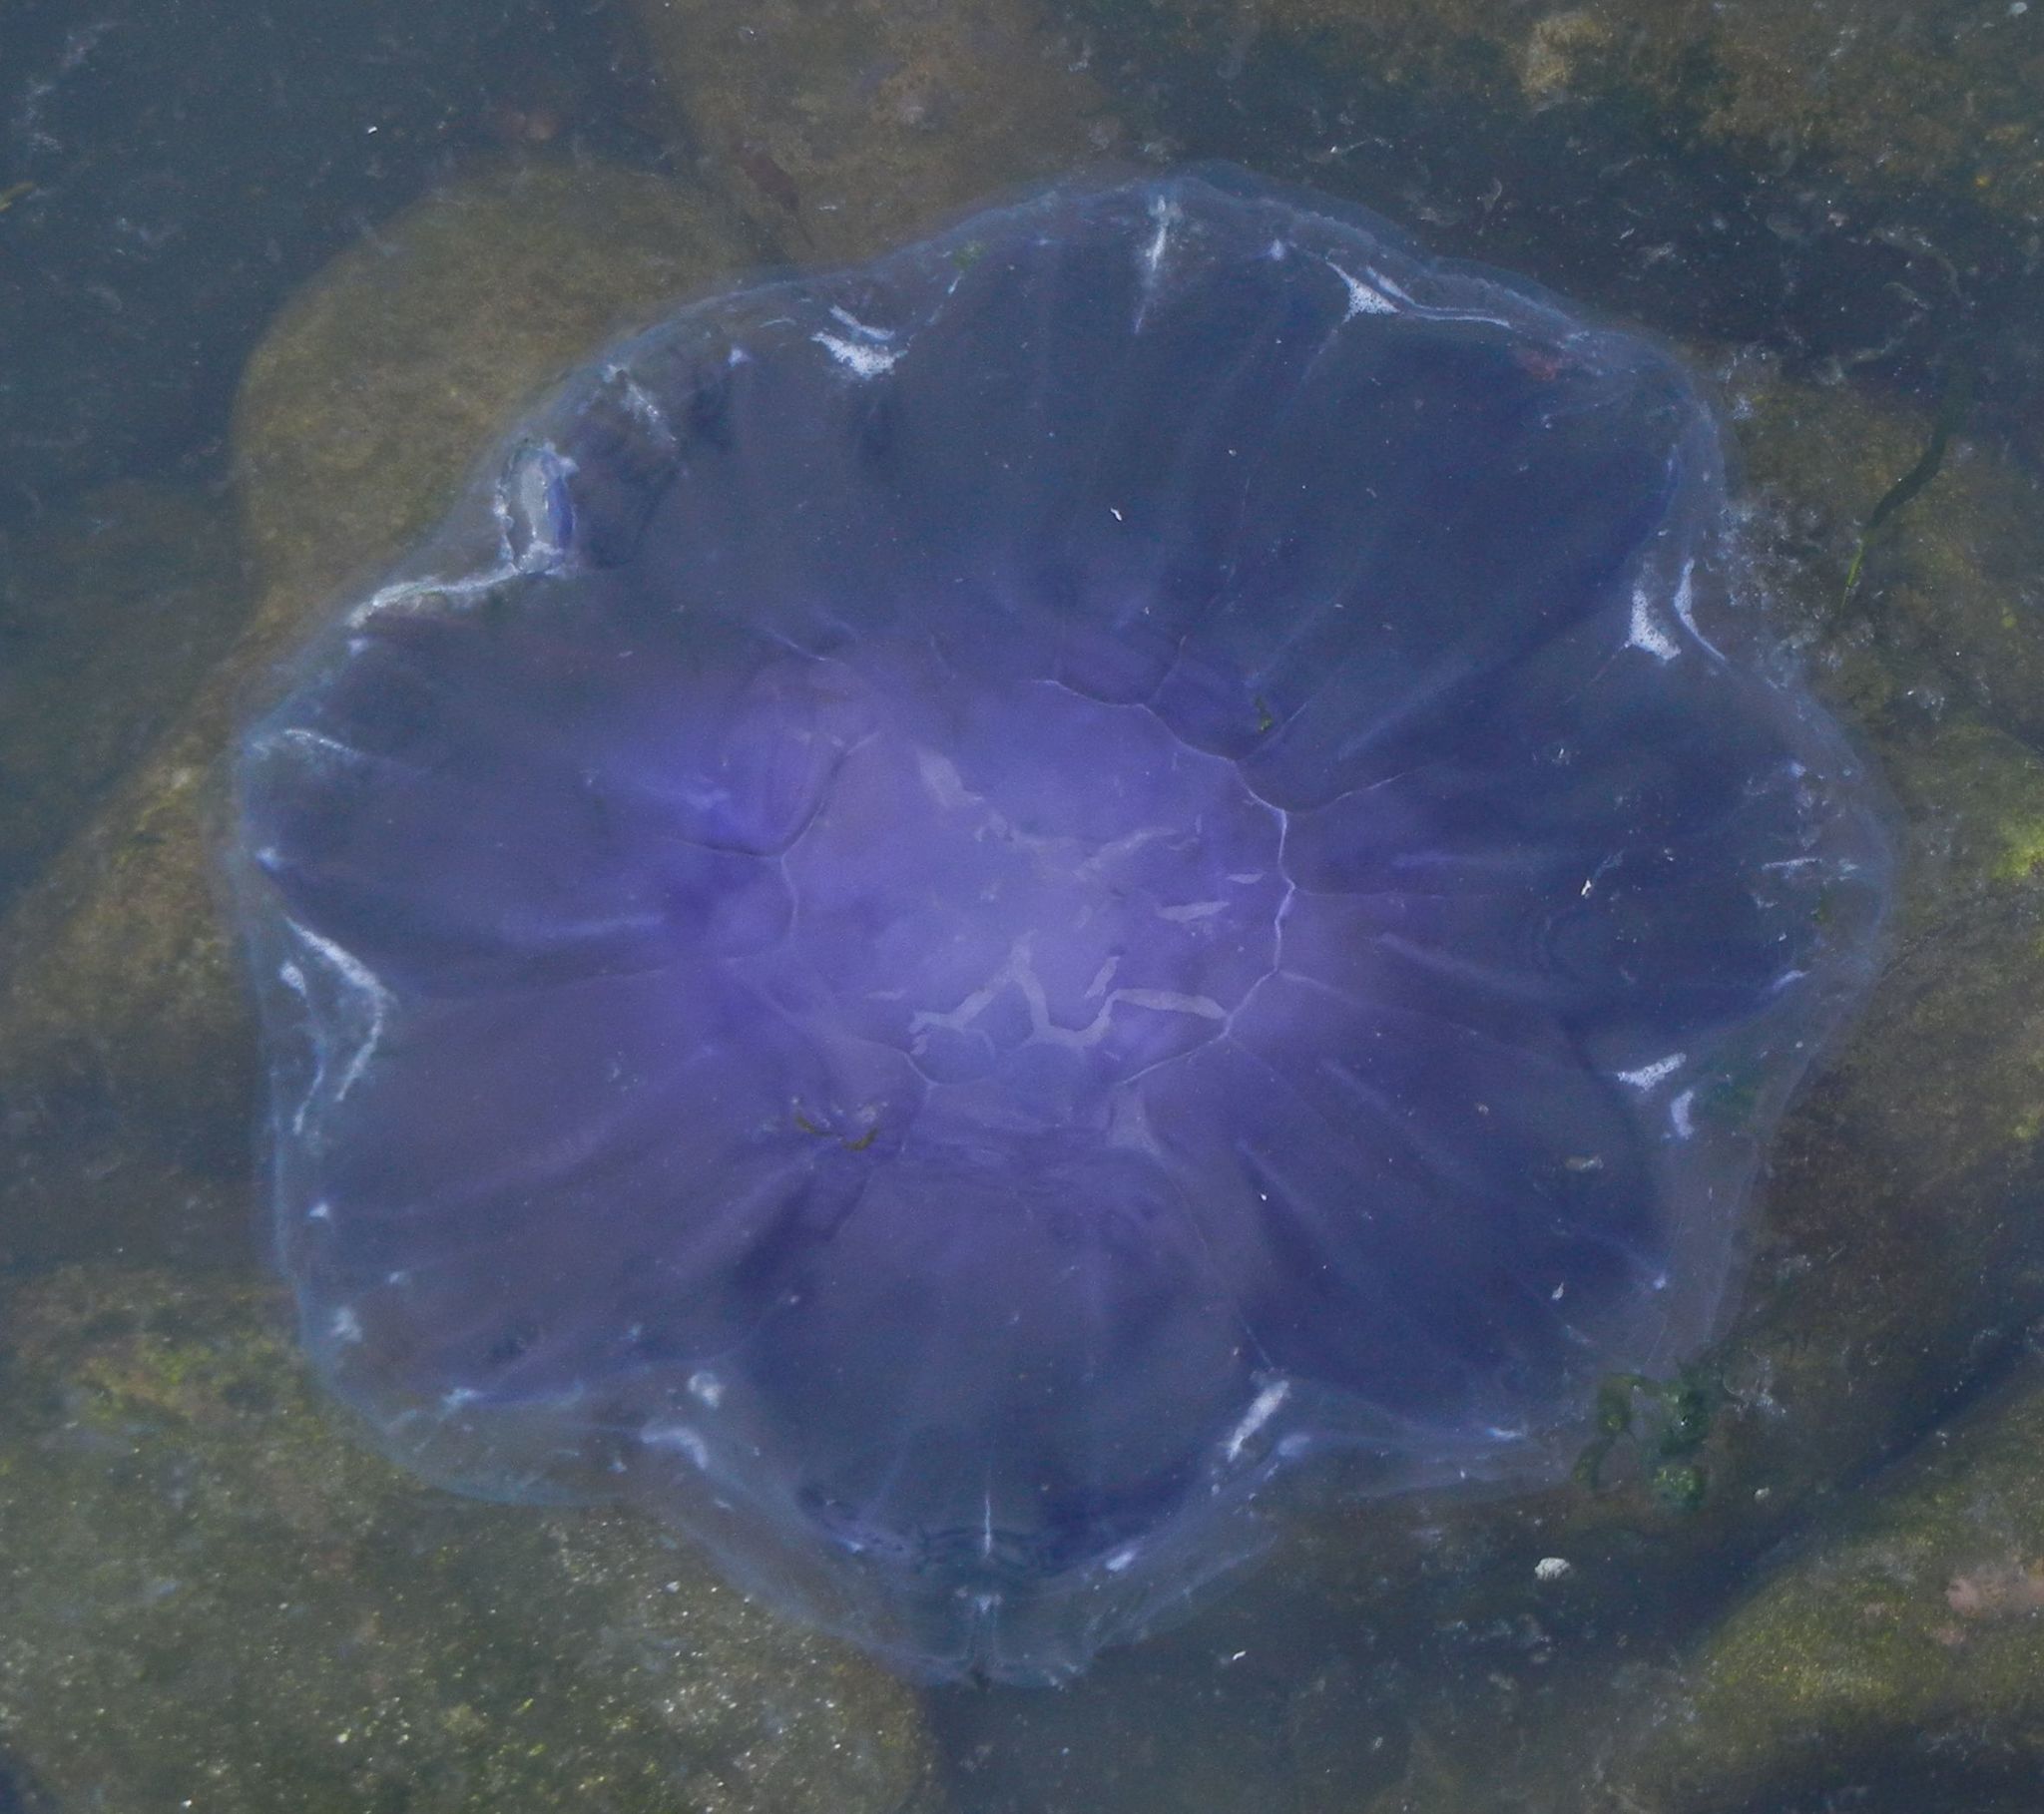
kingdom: Animalia
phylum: Cnidaria
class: Scyphozoa
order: Semaeostomeae
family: Cyaneidae
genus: Cyanea
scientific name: Cyanea lamarckii
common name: Blue jellyfish
